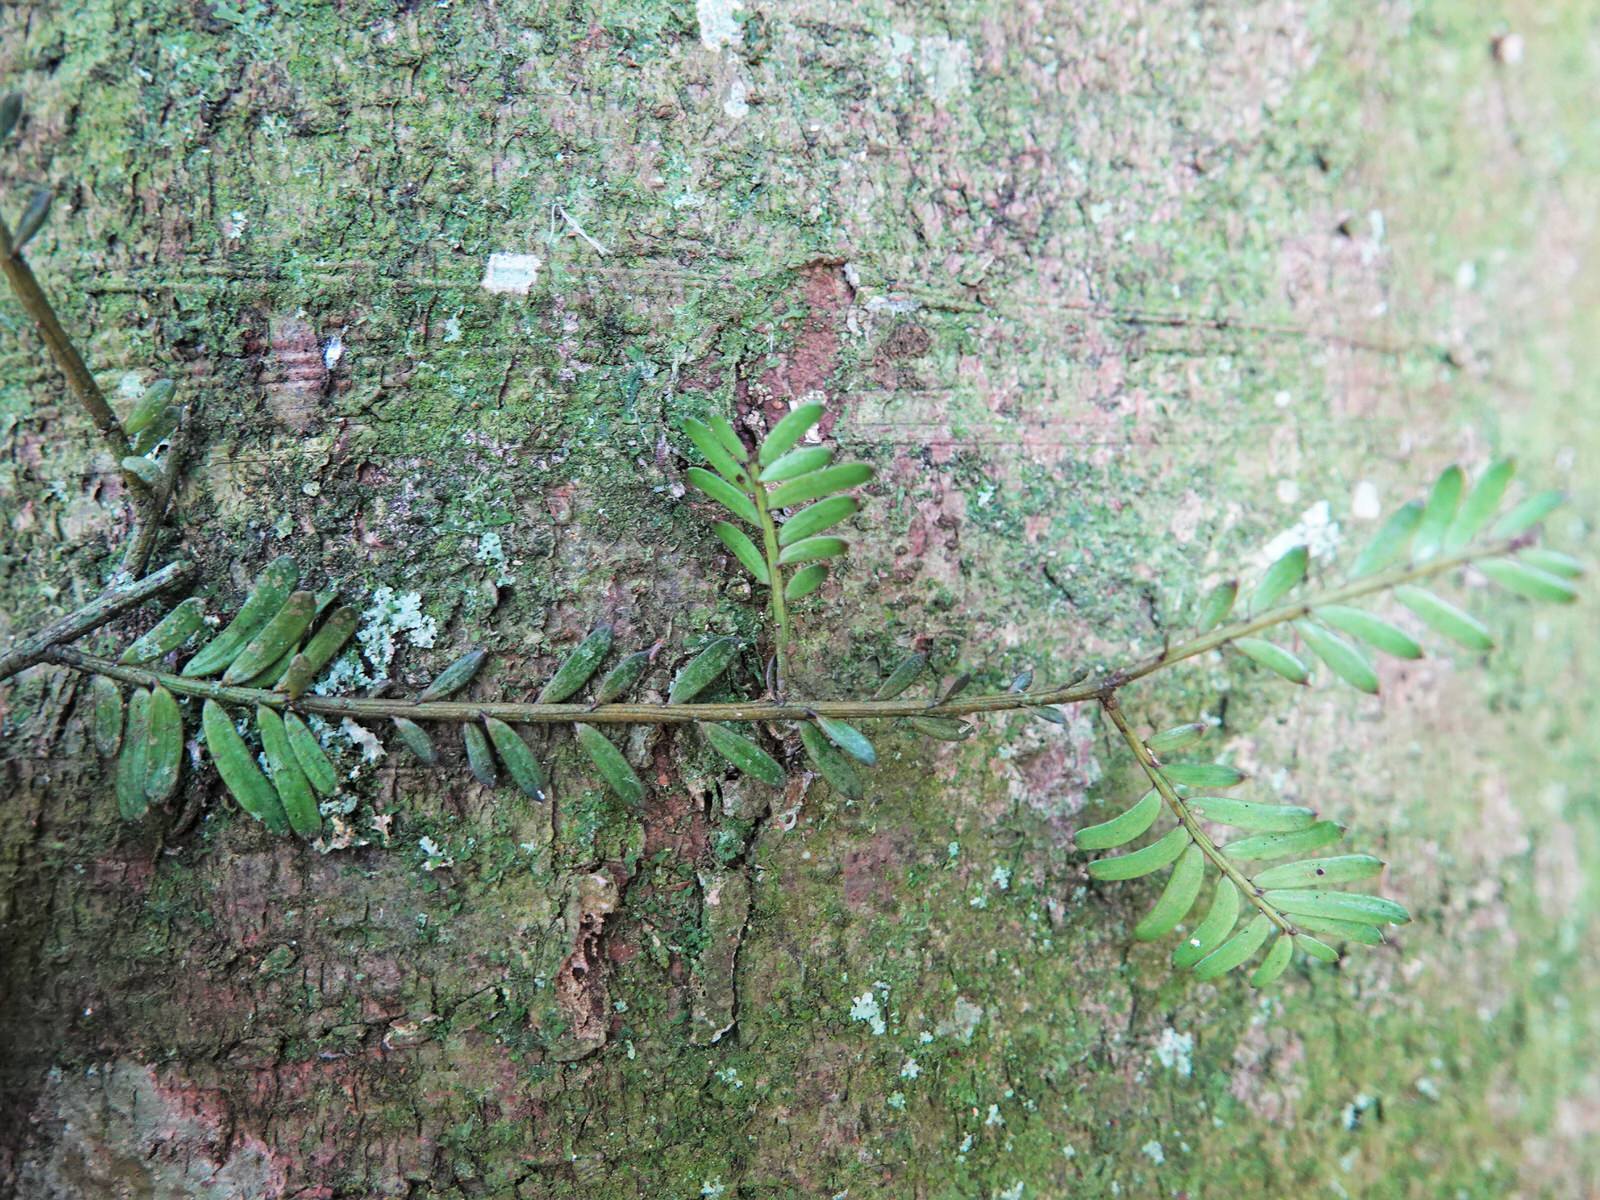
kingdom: Plantae
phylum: Tracheophyta
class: Pinopsida
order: Pinales
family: Podocarpaceae
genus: Prumnopitys
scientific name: Prumnopitys taxifolia
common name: Matai
